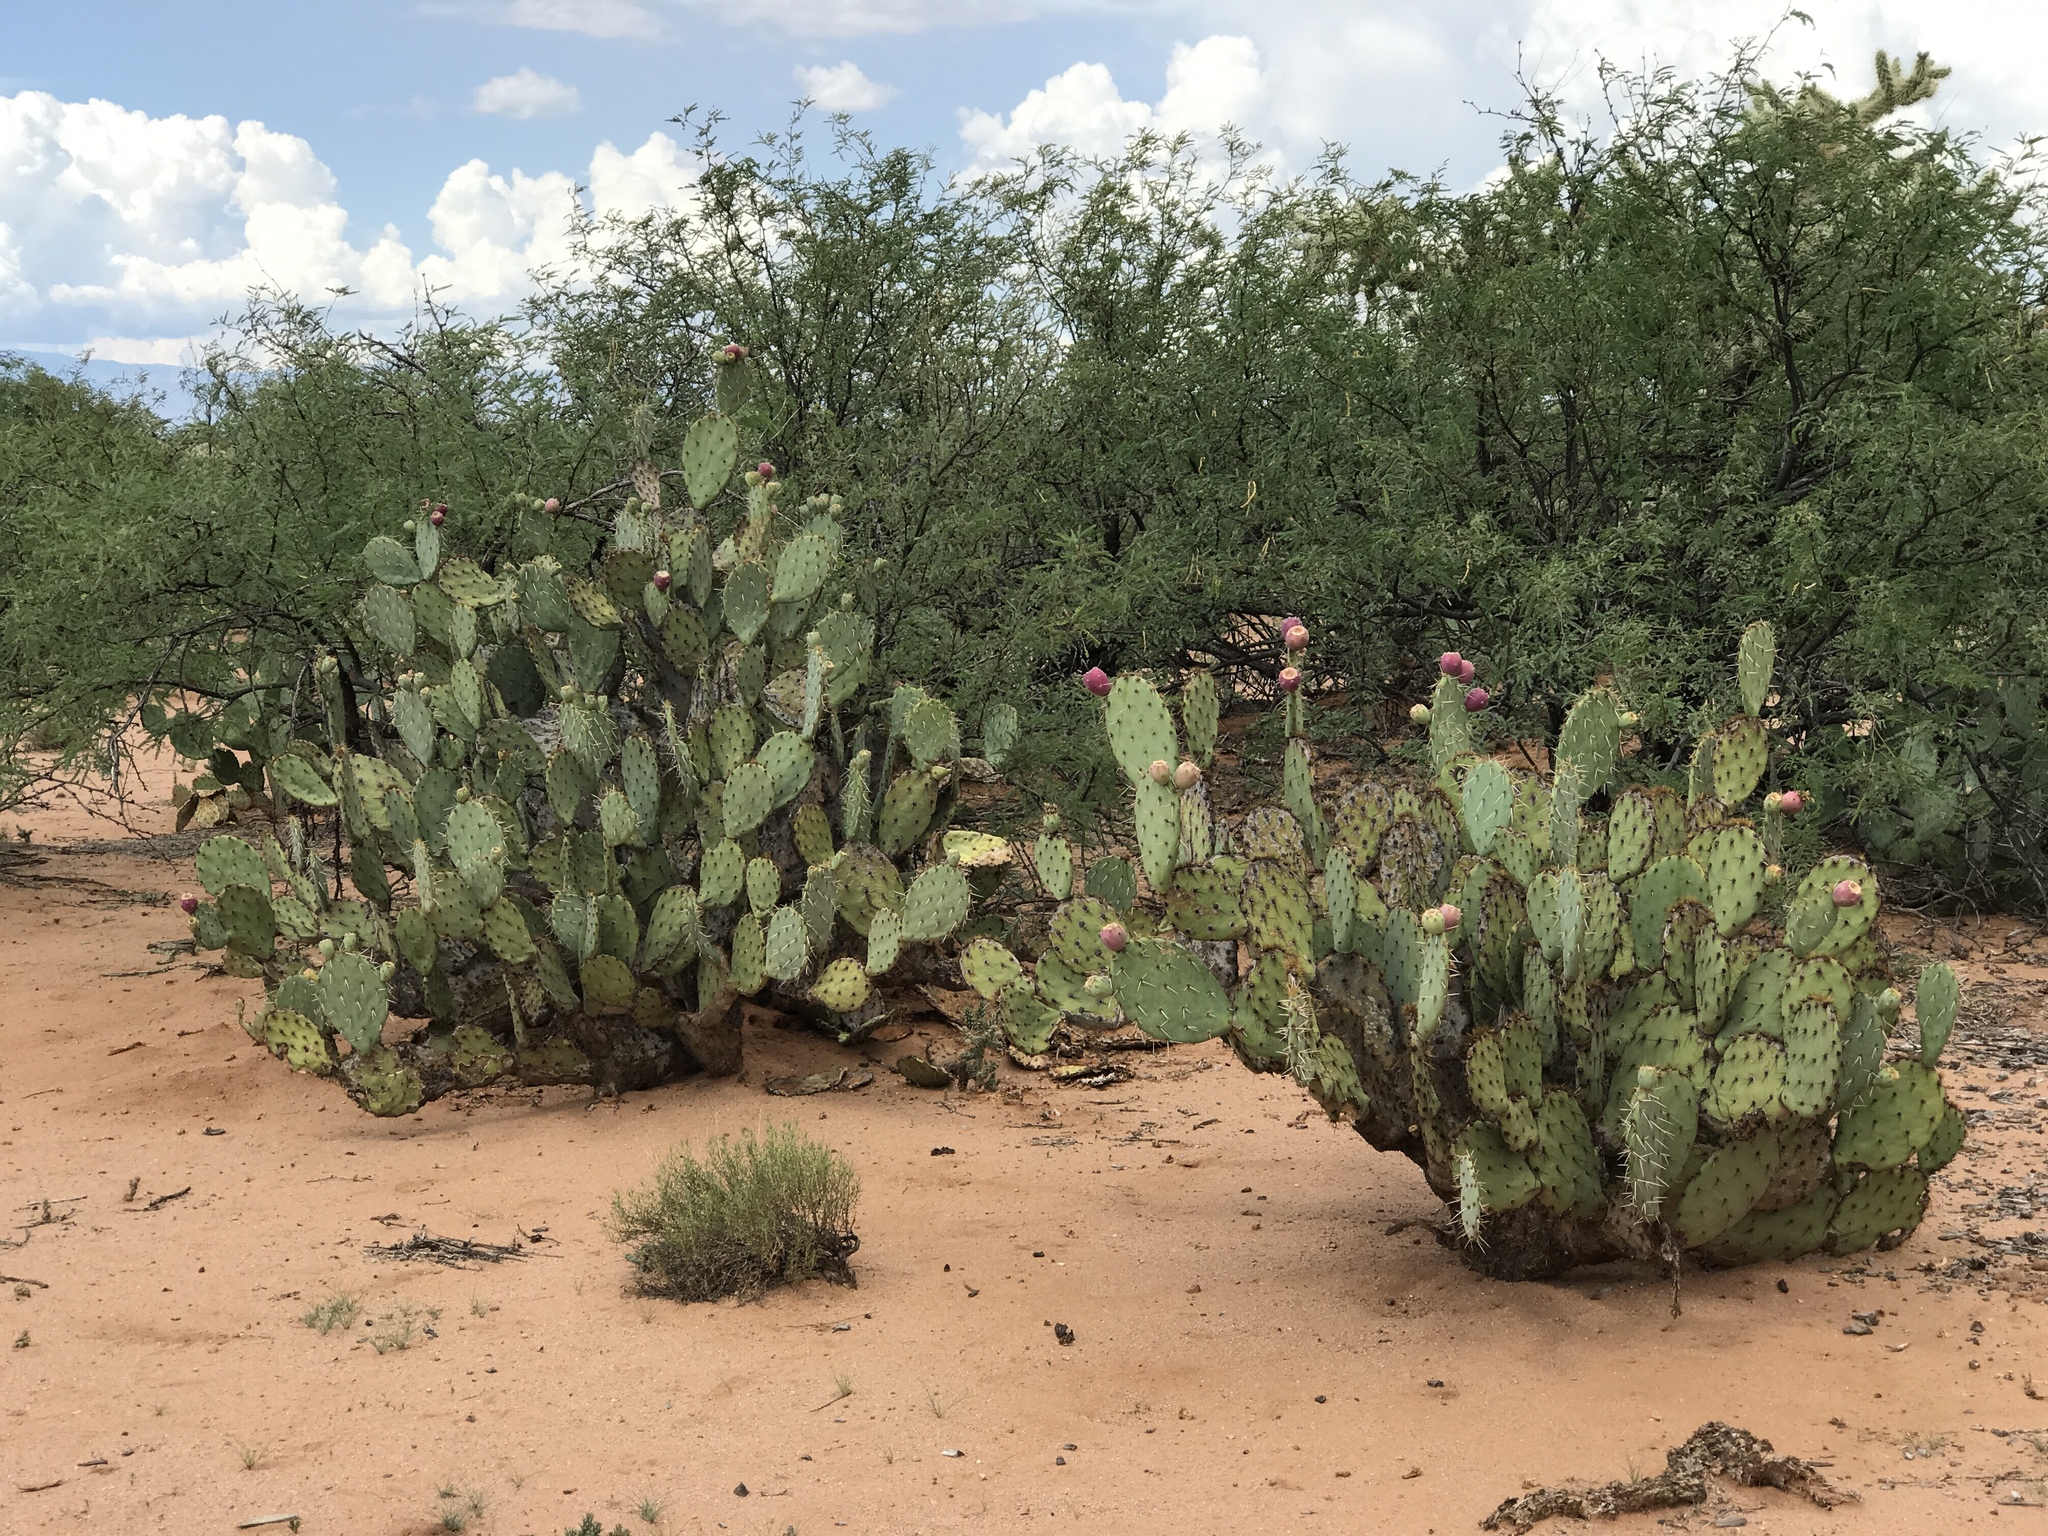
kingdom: Plantae
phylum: Tracheophyta
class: Magnoliopsida
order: Caryophyllales
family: Cactaceae
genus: Opuntia
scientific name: Opuntia engelmannii
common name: Cactus-apple
